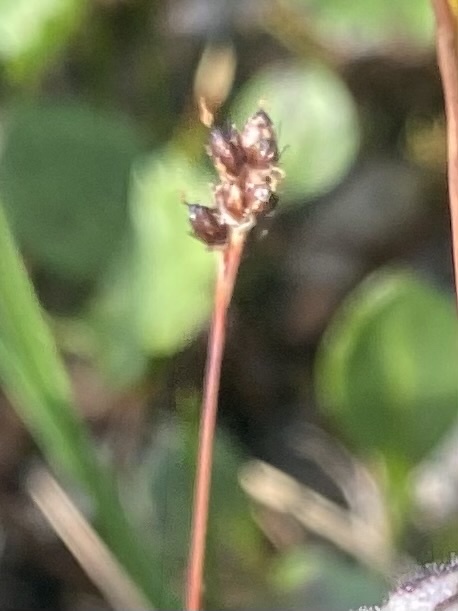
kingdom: Plantae
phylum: Tracheophyta
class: Liliopsida
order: Poales
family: Juncaceae
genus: Luzula
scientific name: Luzula confusa
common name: Northern wood rush
